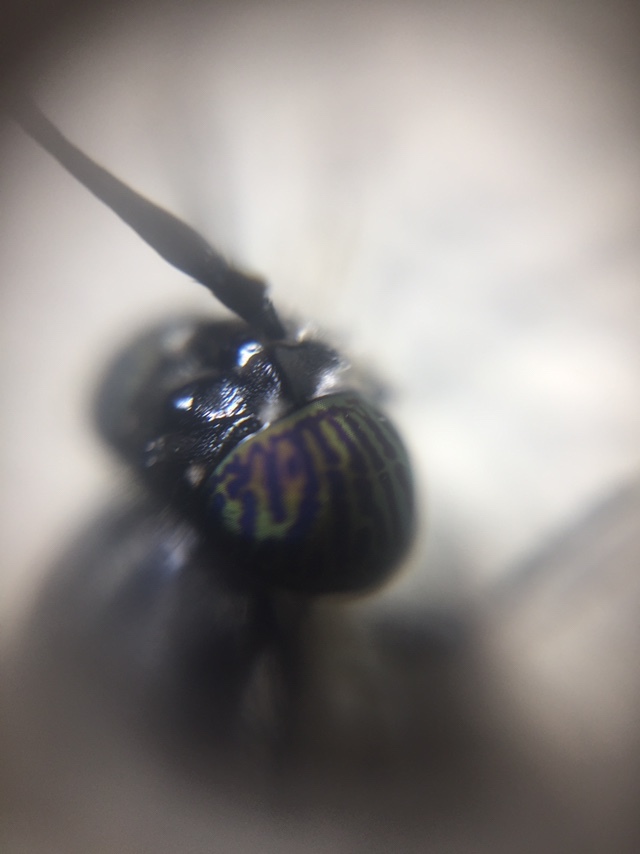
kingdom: Animalia
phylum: Arthropoda
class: Insecta
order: Diptera
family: Stratiomyidae
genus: Hermetia
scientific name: Hermetia illucens
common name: Black soldier fly
